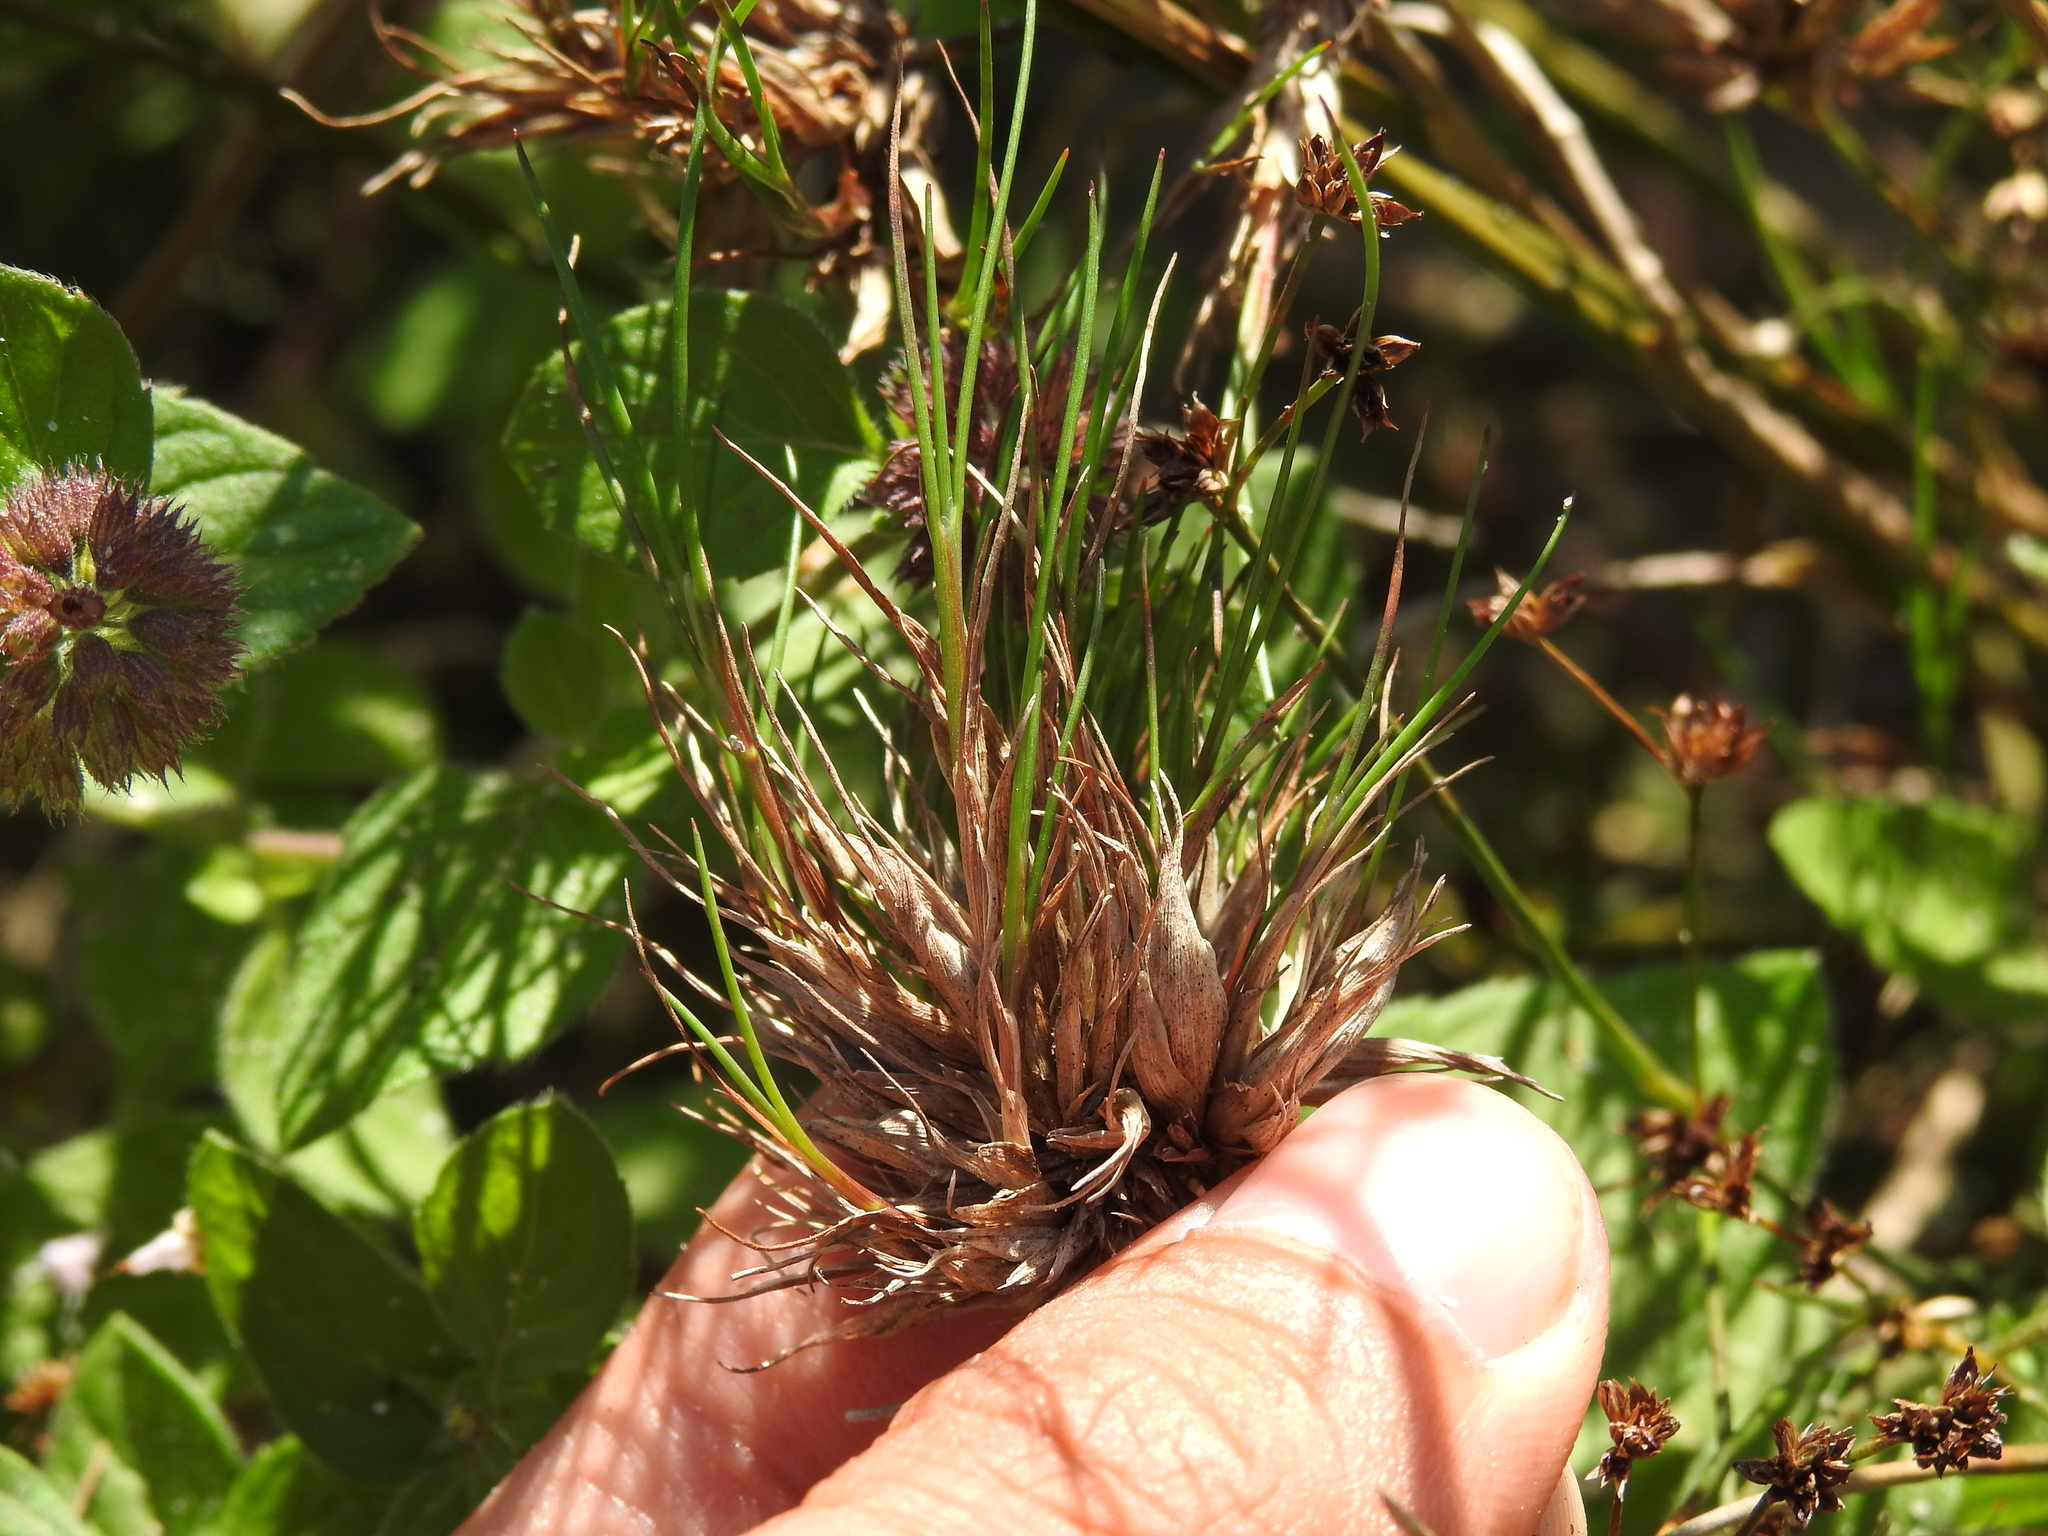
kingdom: Animalia
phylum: Arthropoda
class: Insecta
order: Hemiptera
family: Liviidae
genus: Livia
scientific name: Livia junci
